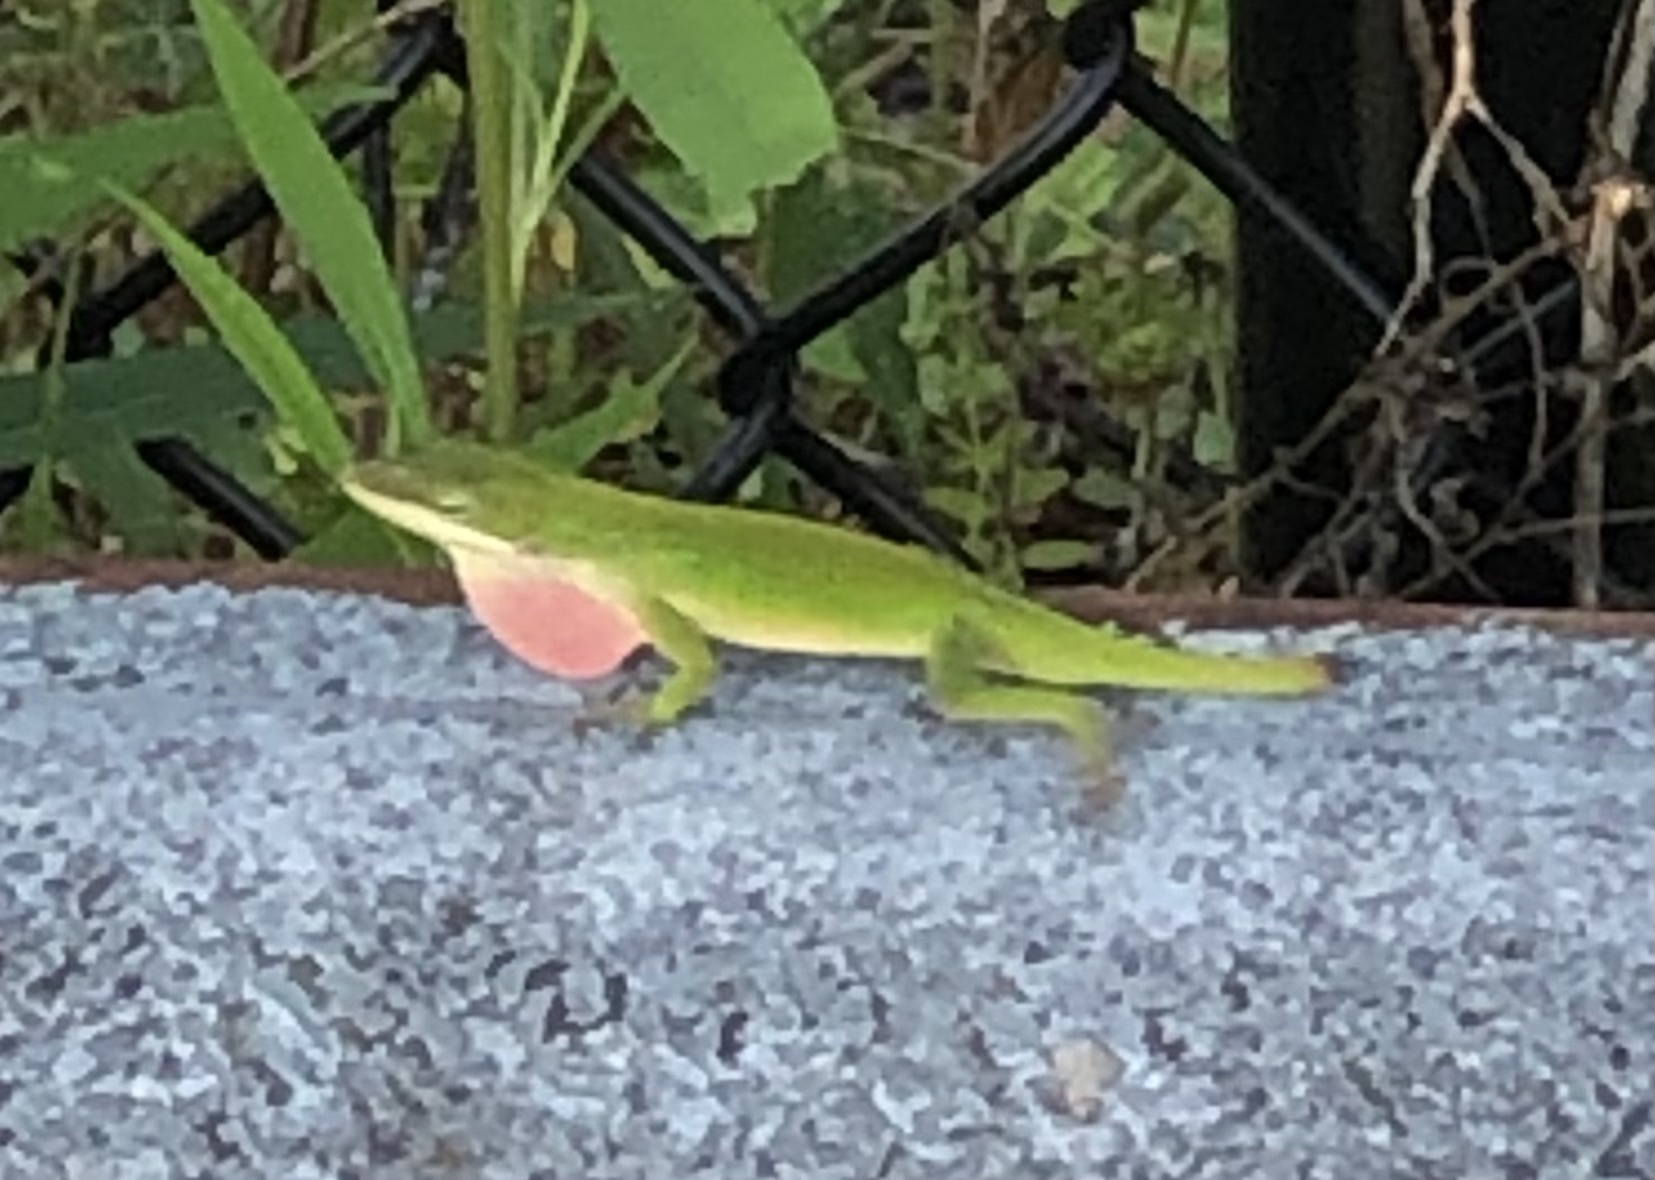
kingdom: Animalia
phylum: Chordata
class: Squamata
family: Dactyloidae
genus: Anolis
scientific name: Anolis carolinensis
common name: Green anole
